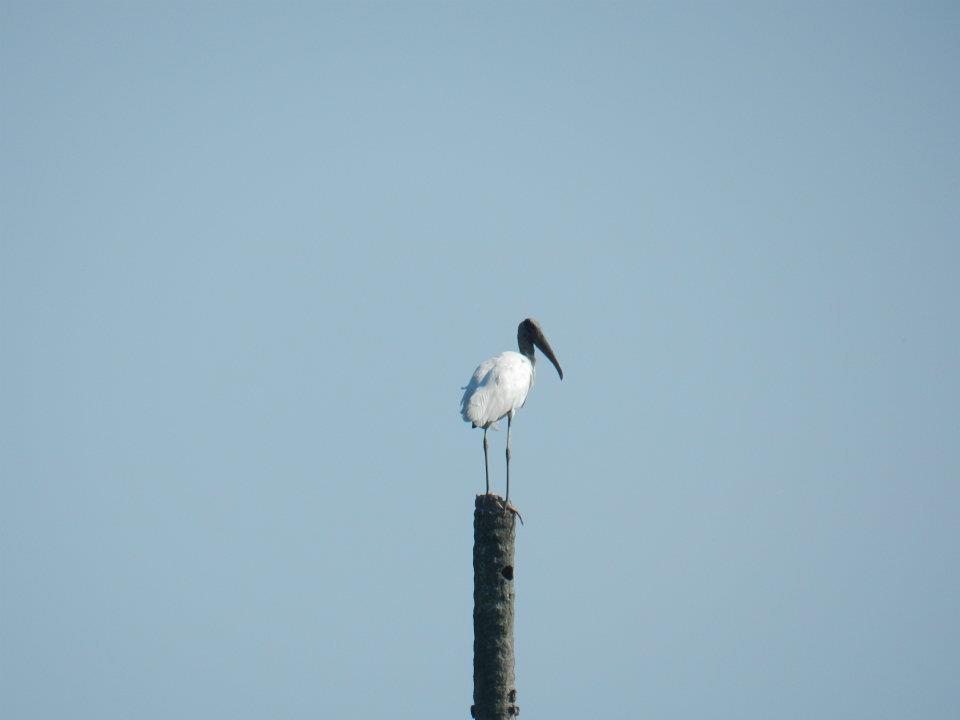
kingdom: Animalia
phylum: Chordata
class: Aves
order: Ciconiiformes
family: Ciconiidae
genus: Mycteria
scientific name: Mycteria americana
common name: Wood stork
